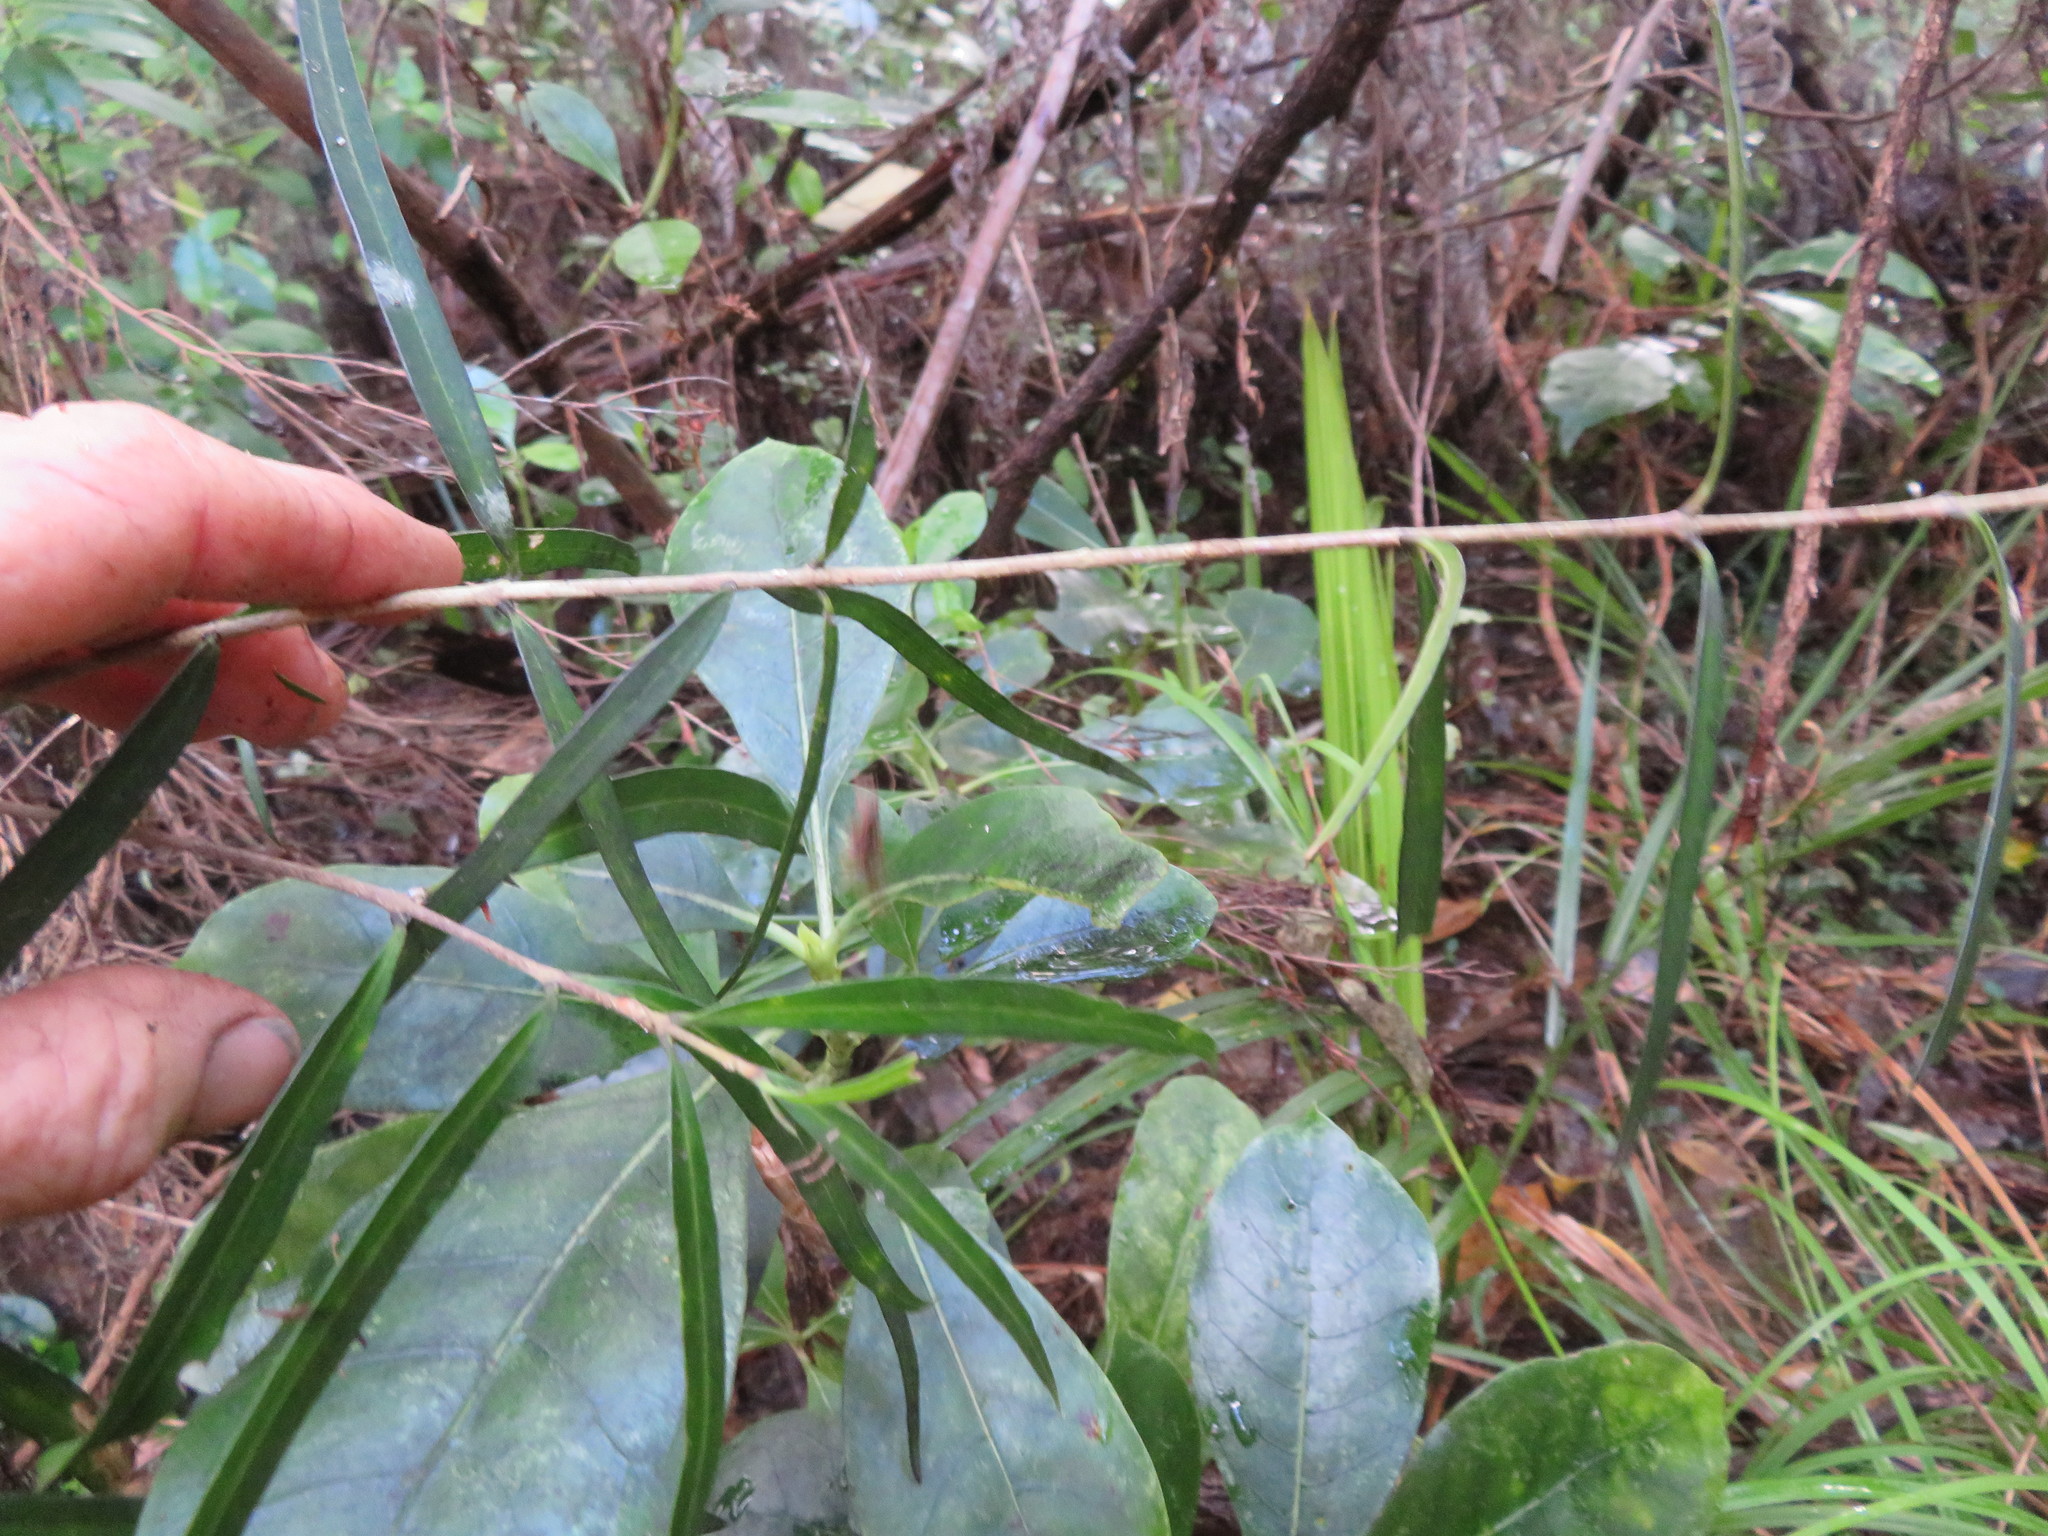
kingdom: Plantae
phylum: Tracheophyta
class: Magnoliopsida
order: Lamiales
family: Oleaceae
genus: Nestegis
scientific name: Nestegis lanceolata
